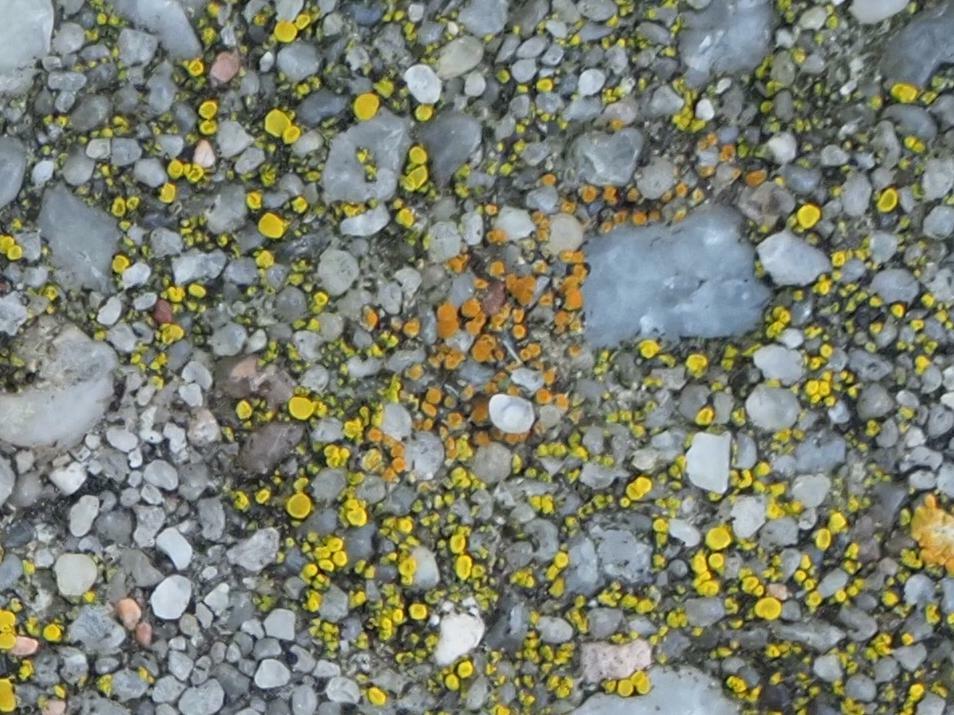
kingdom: Fungi
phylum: Ascomycota
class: Candelariomycetes
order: Candelariales
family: Candelariaceae
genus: Candelariella
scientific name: Candelariella aurella
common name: Hidden goldspeck lichen
